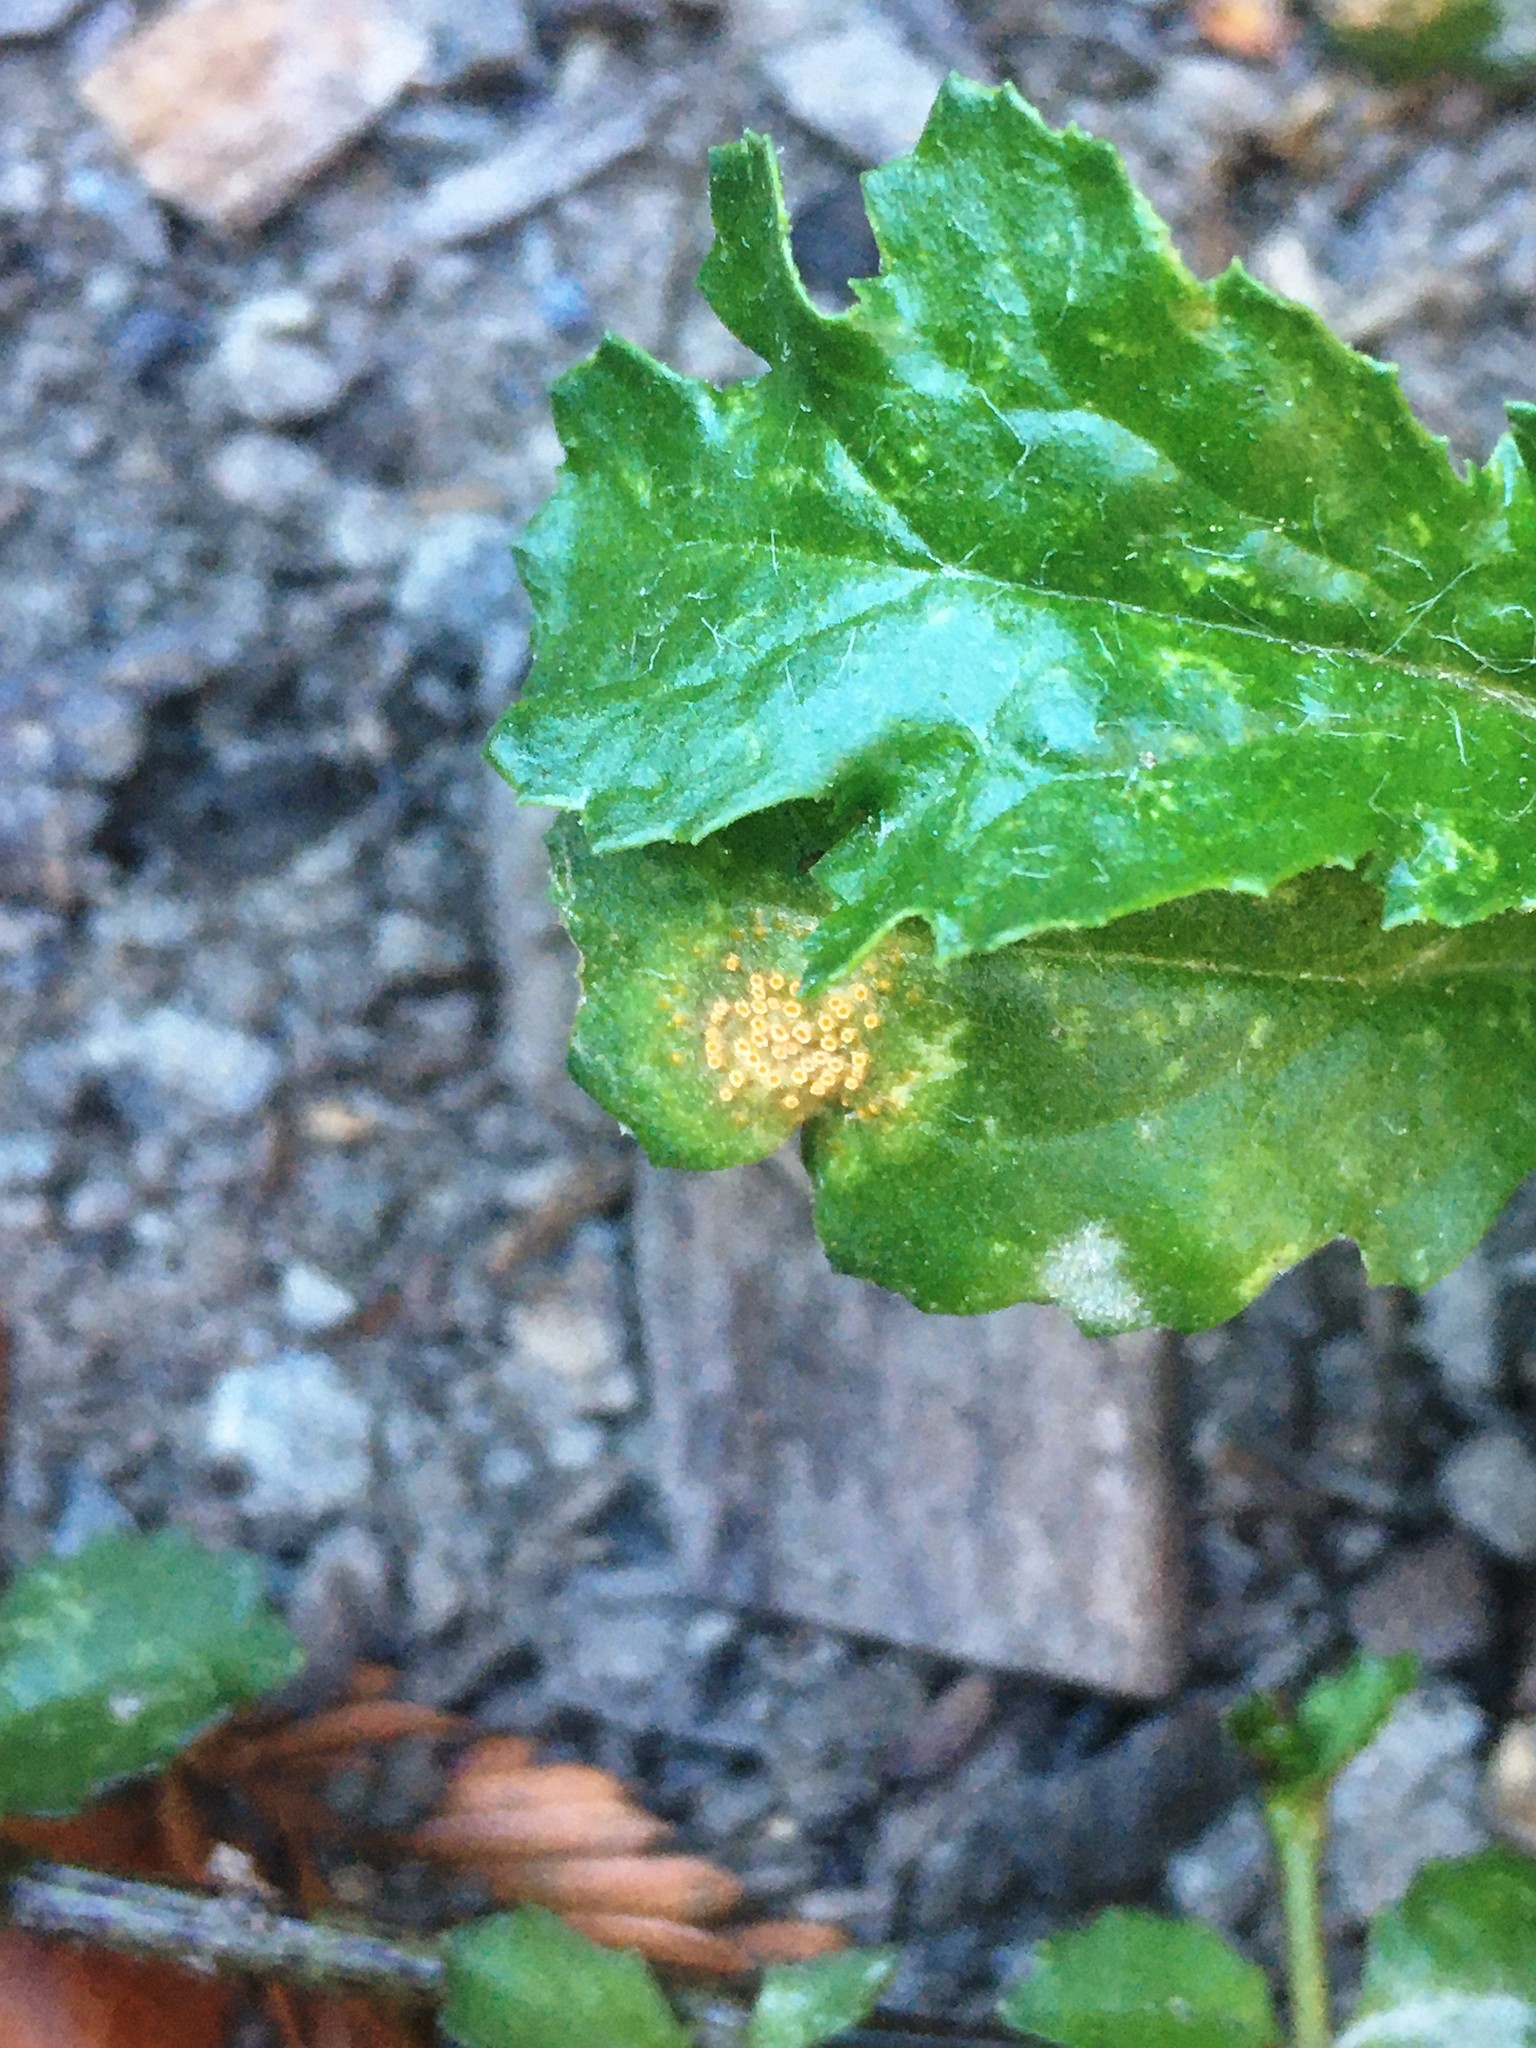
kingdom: Fungi
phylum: Basidiomycota
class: Pucciniomycetes
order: Pucciniales
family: Pucciniaceae
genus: Puccinia
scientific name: Puccinia lagenophorae
